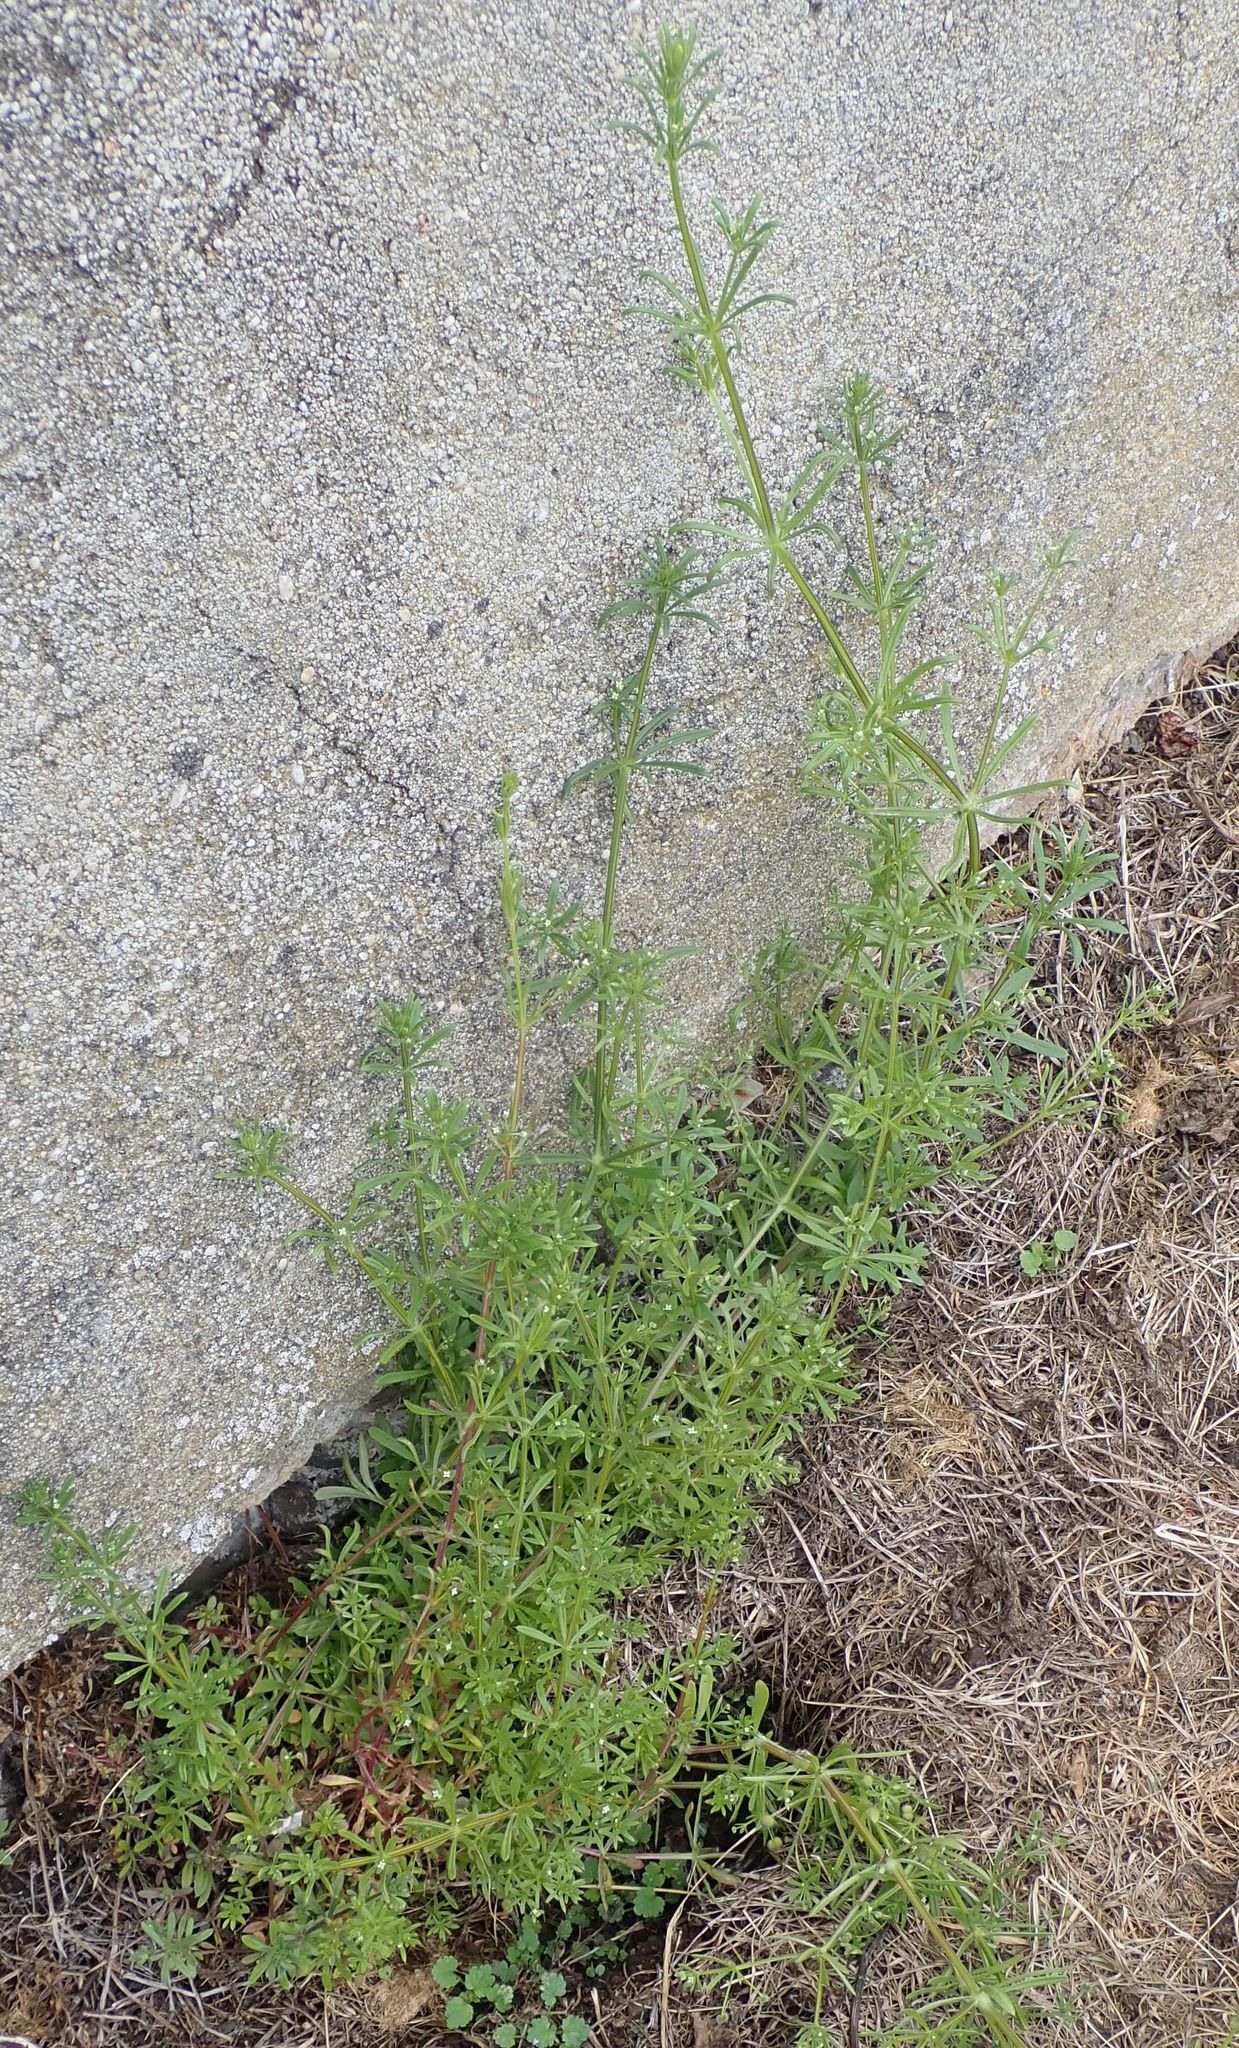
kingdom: Plantae
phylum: Tracheophyta
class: Magnoliopsida
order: Gentianales
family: Rubiaceae
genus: Galium
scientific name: Galium aparine
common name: Cleavers
